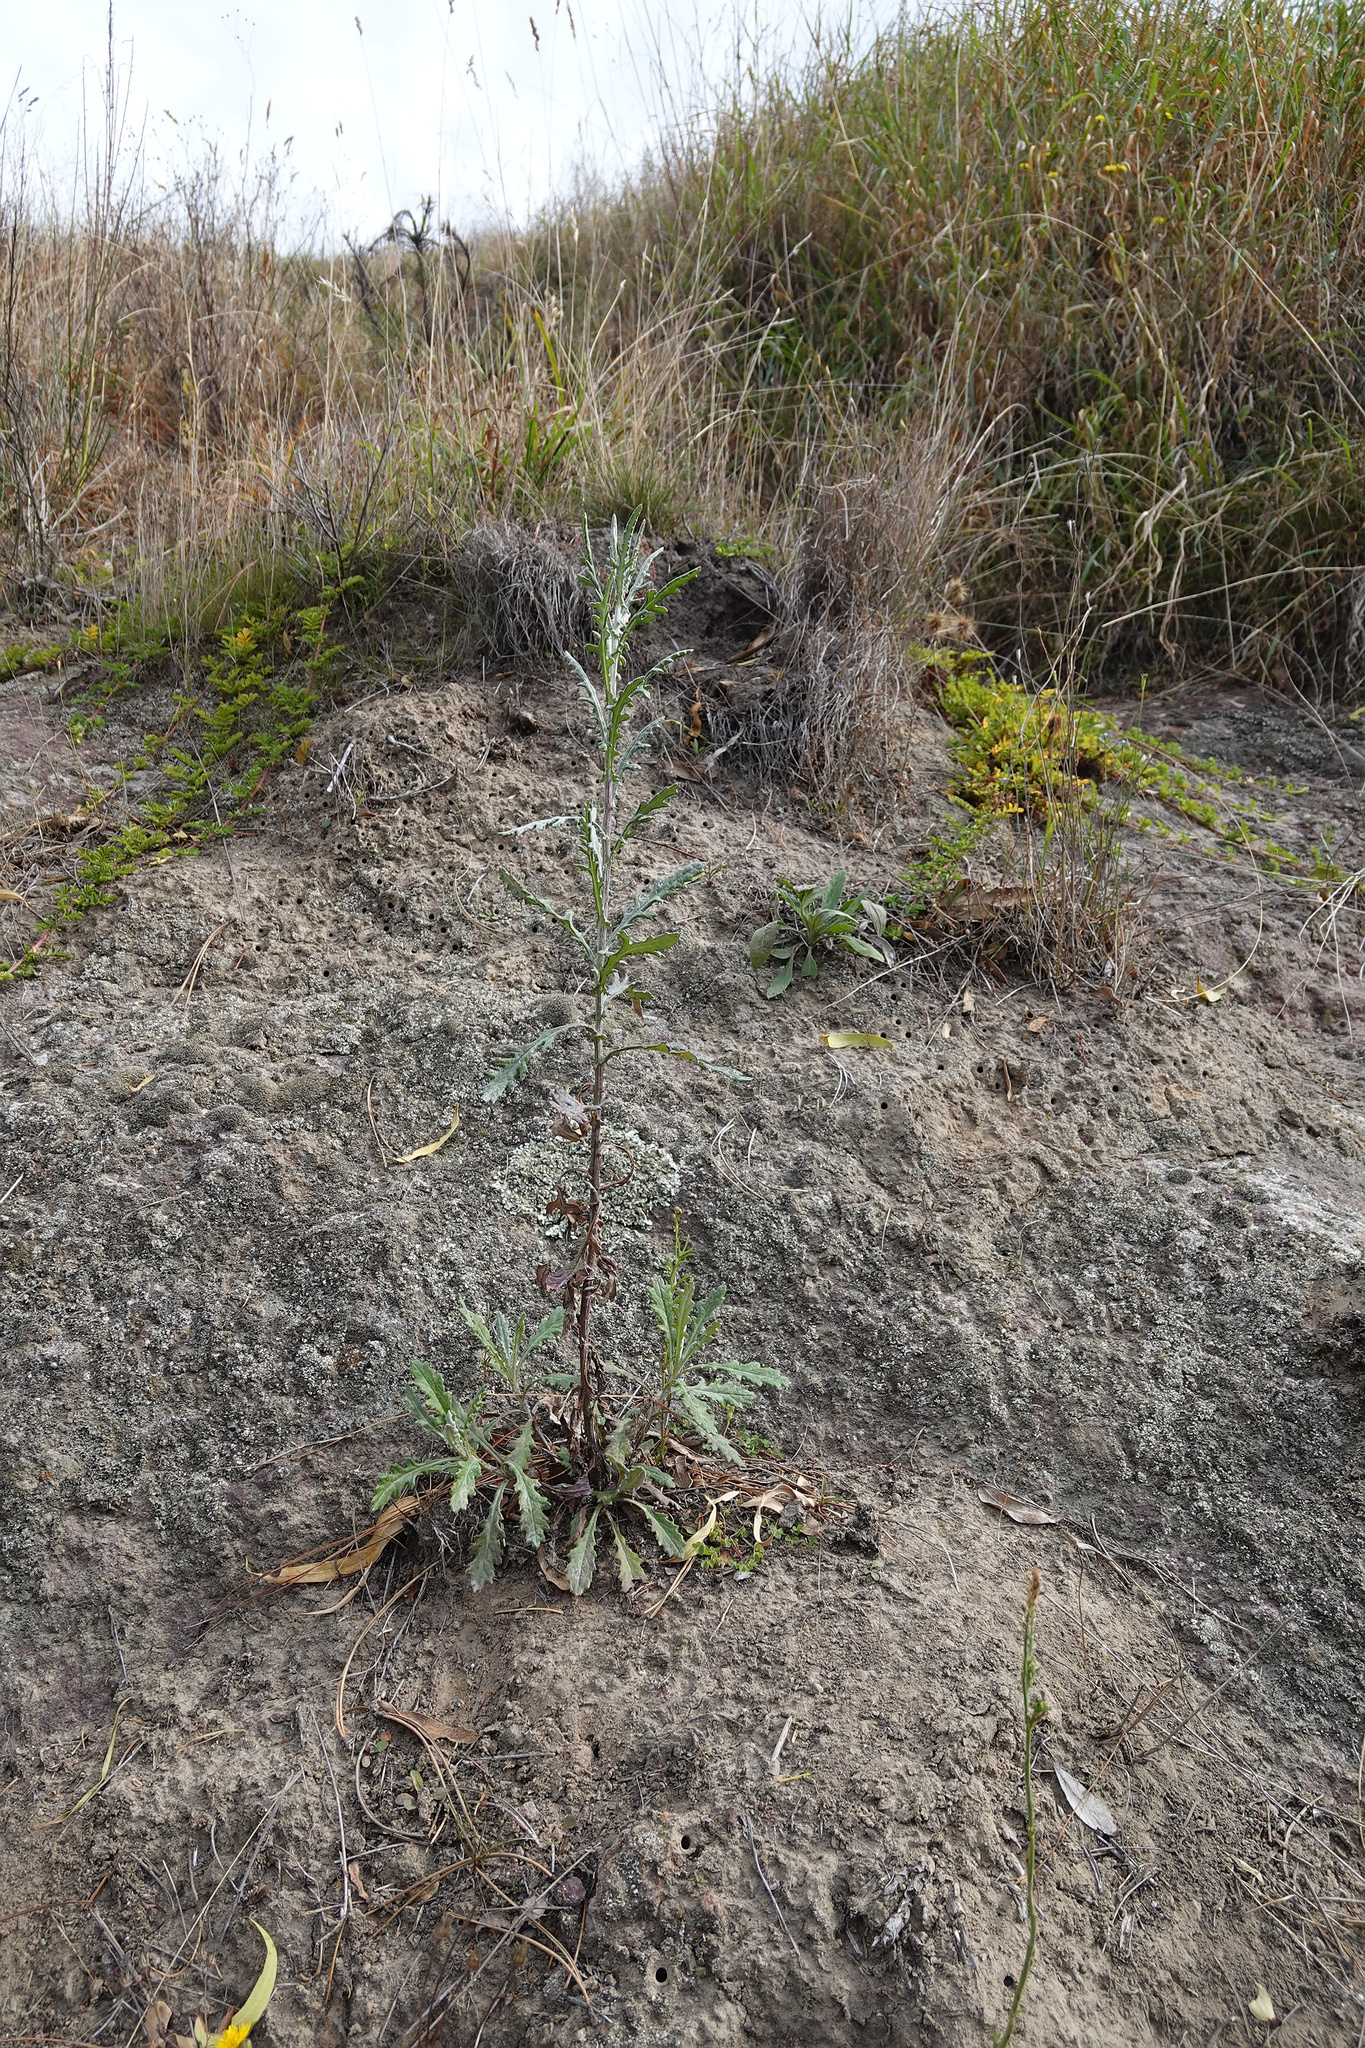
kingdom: Plantae
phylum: Tracheophyta
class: Magnoliopsida
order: Asterales
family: Asteraceae
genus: Senecio
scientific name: Senecio glomeratus
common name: Cutleaf burnweed
